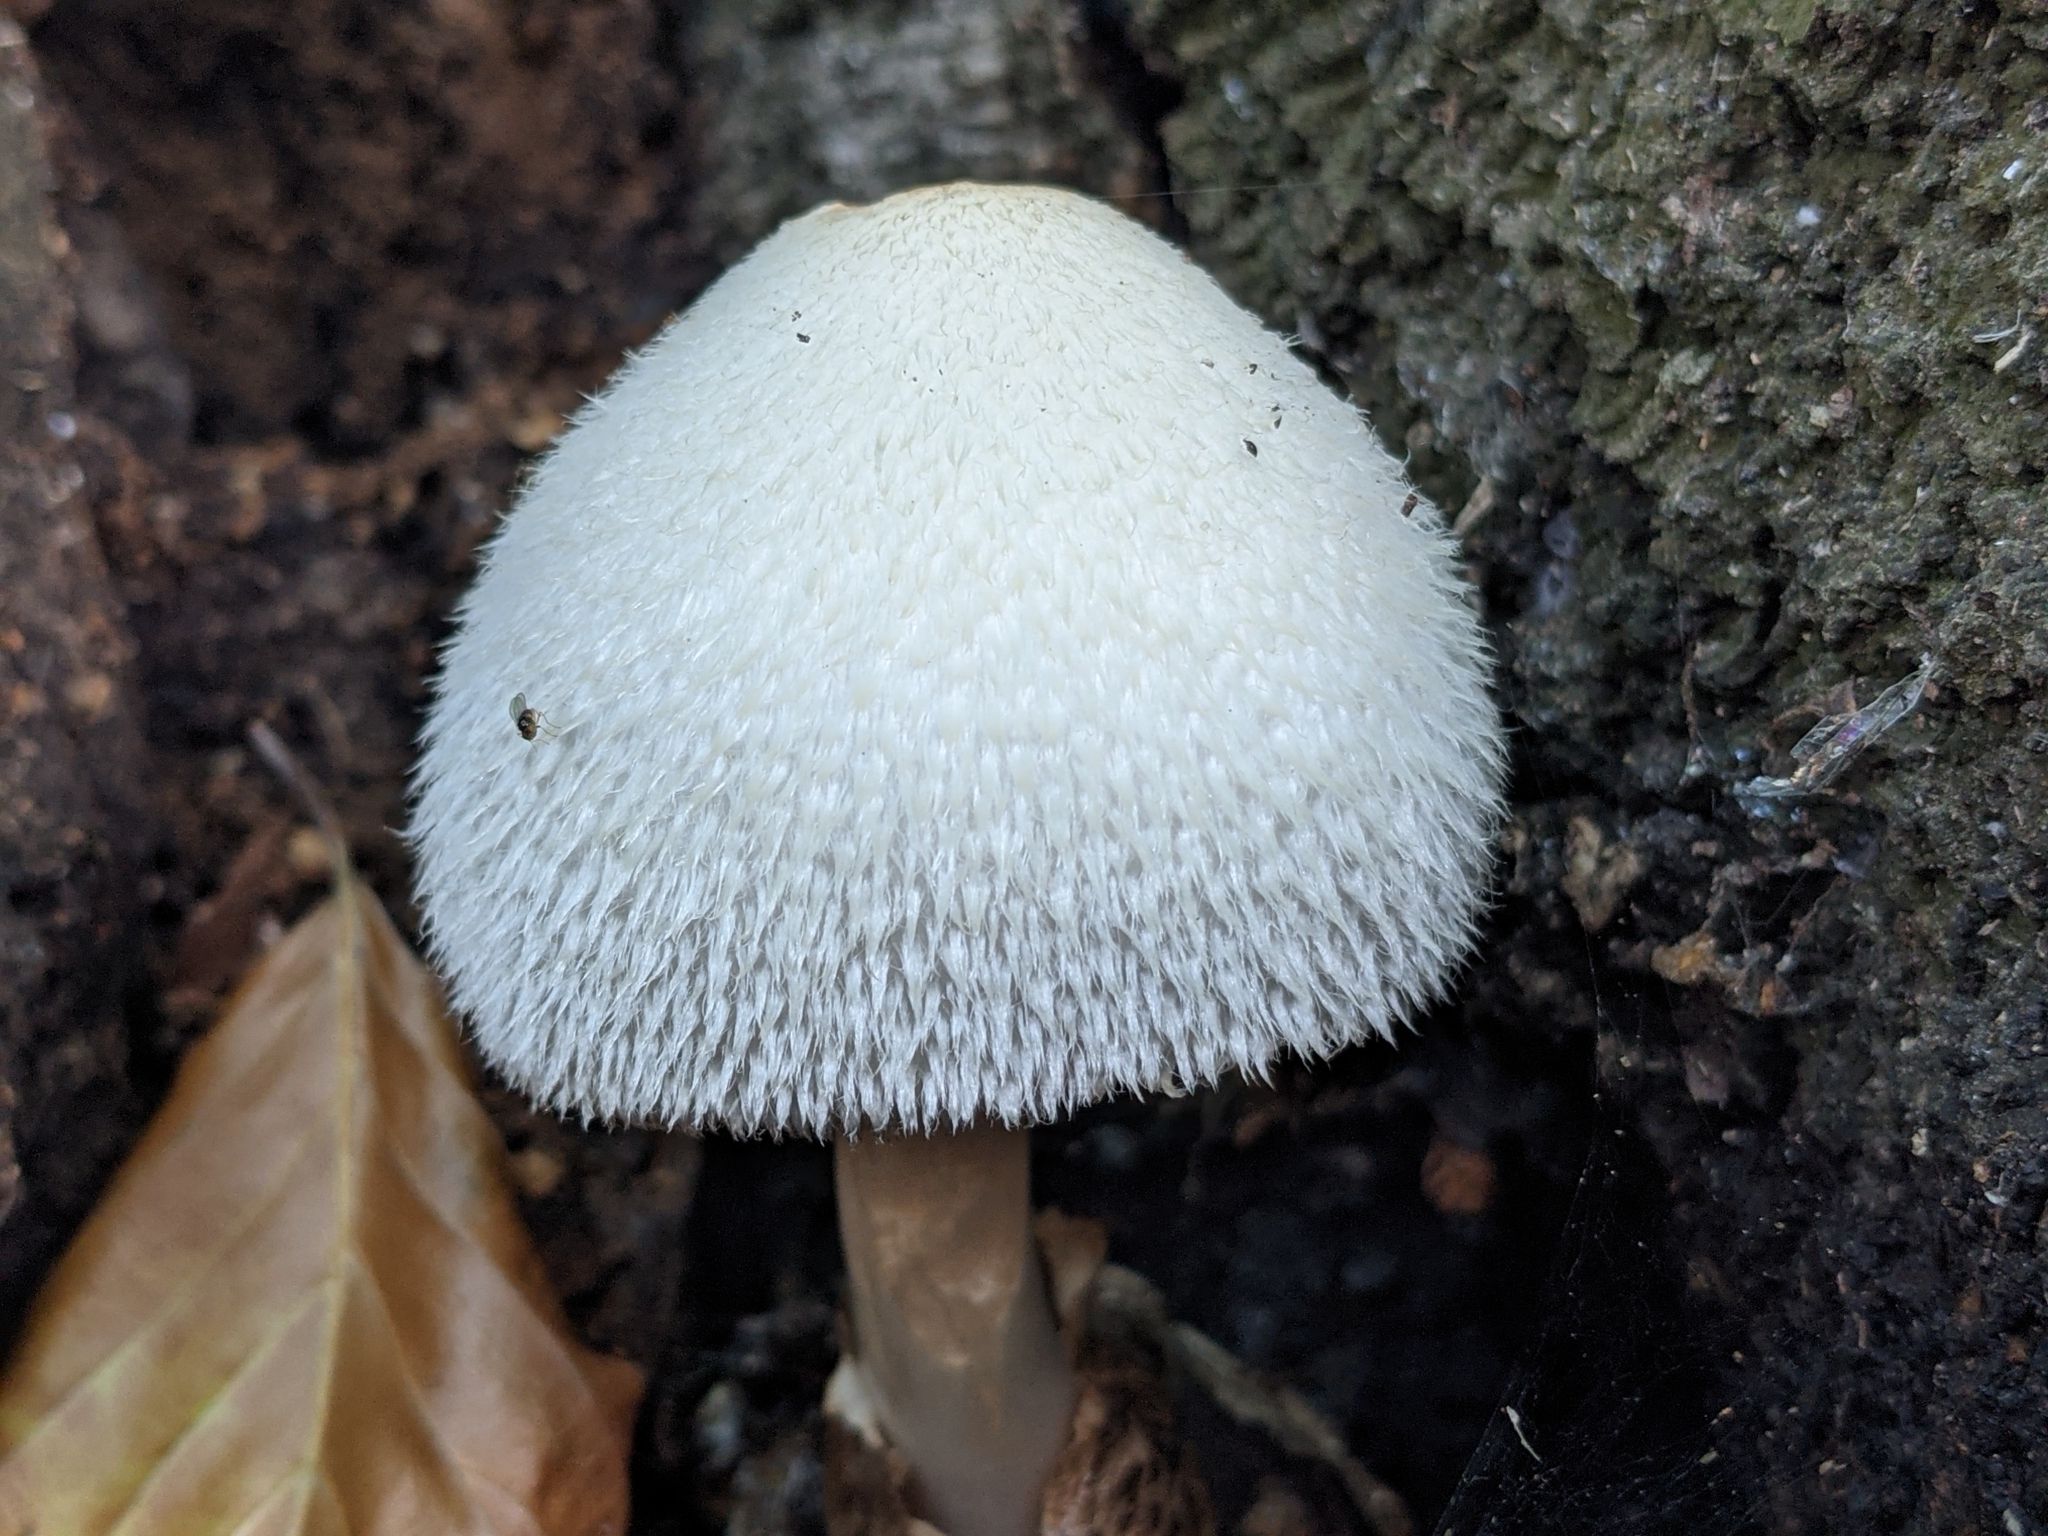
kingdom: Fungi
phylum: Basidiomycota
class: Agaricomycetes
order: Agaricales
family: Pluteaceae
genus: Volvariella
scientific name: Volvariella bombycina
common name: Silky rosegill
